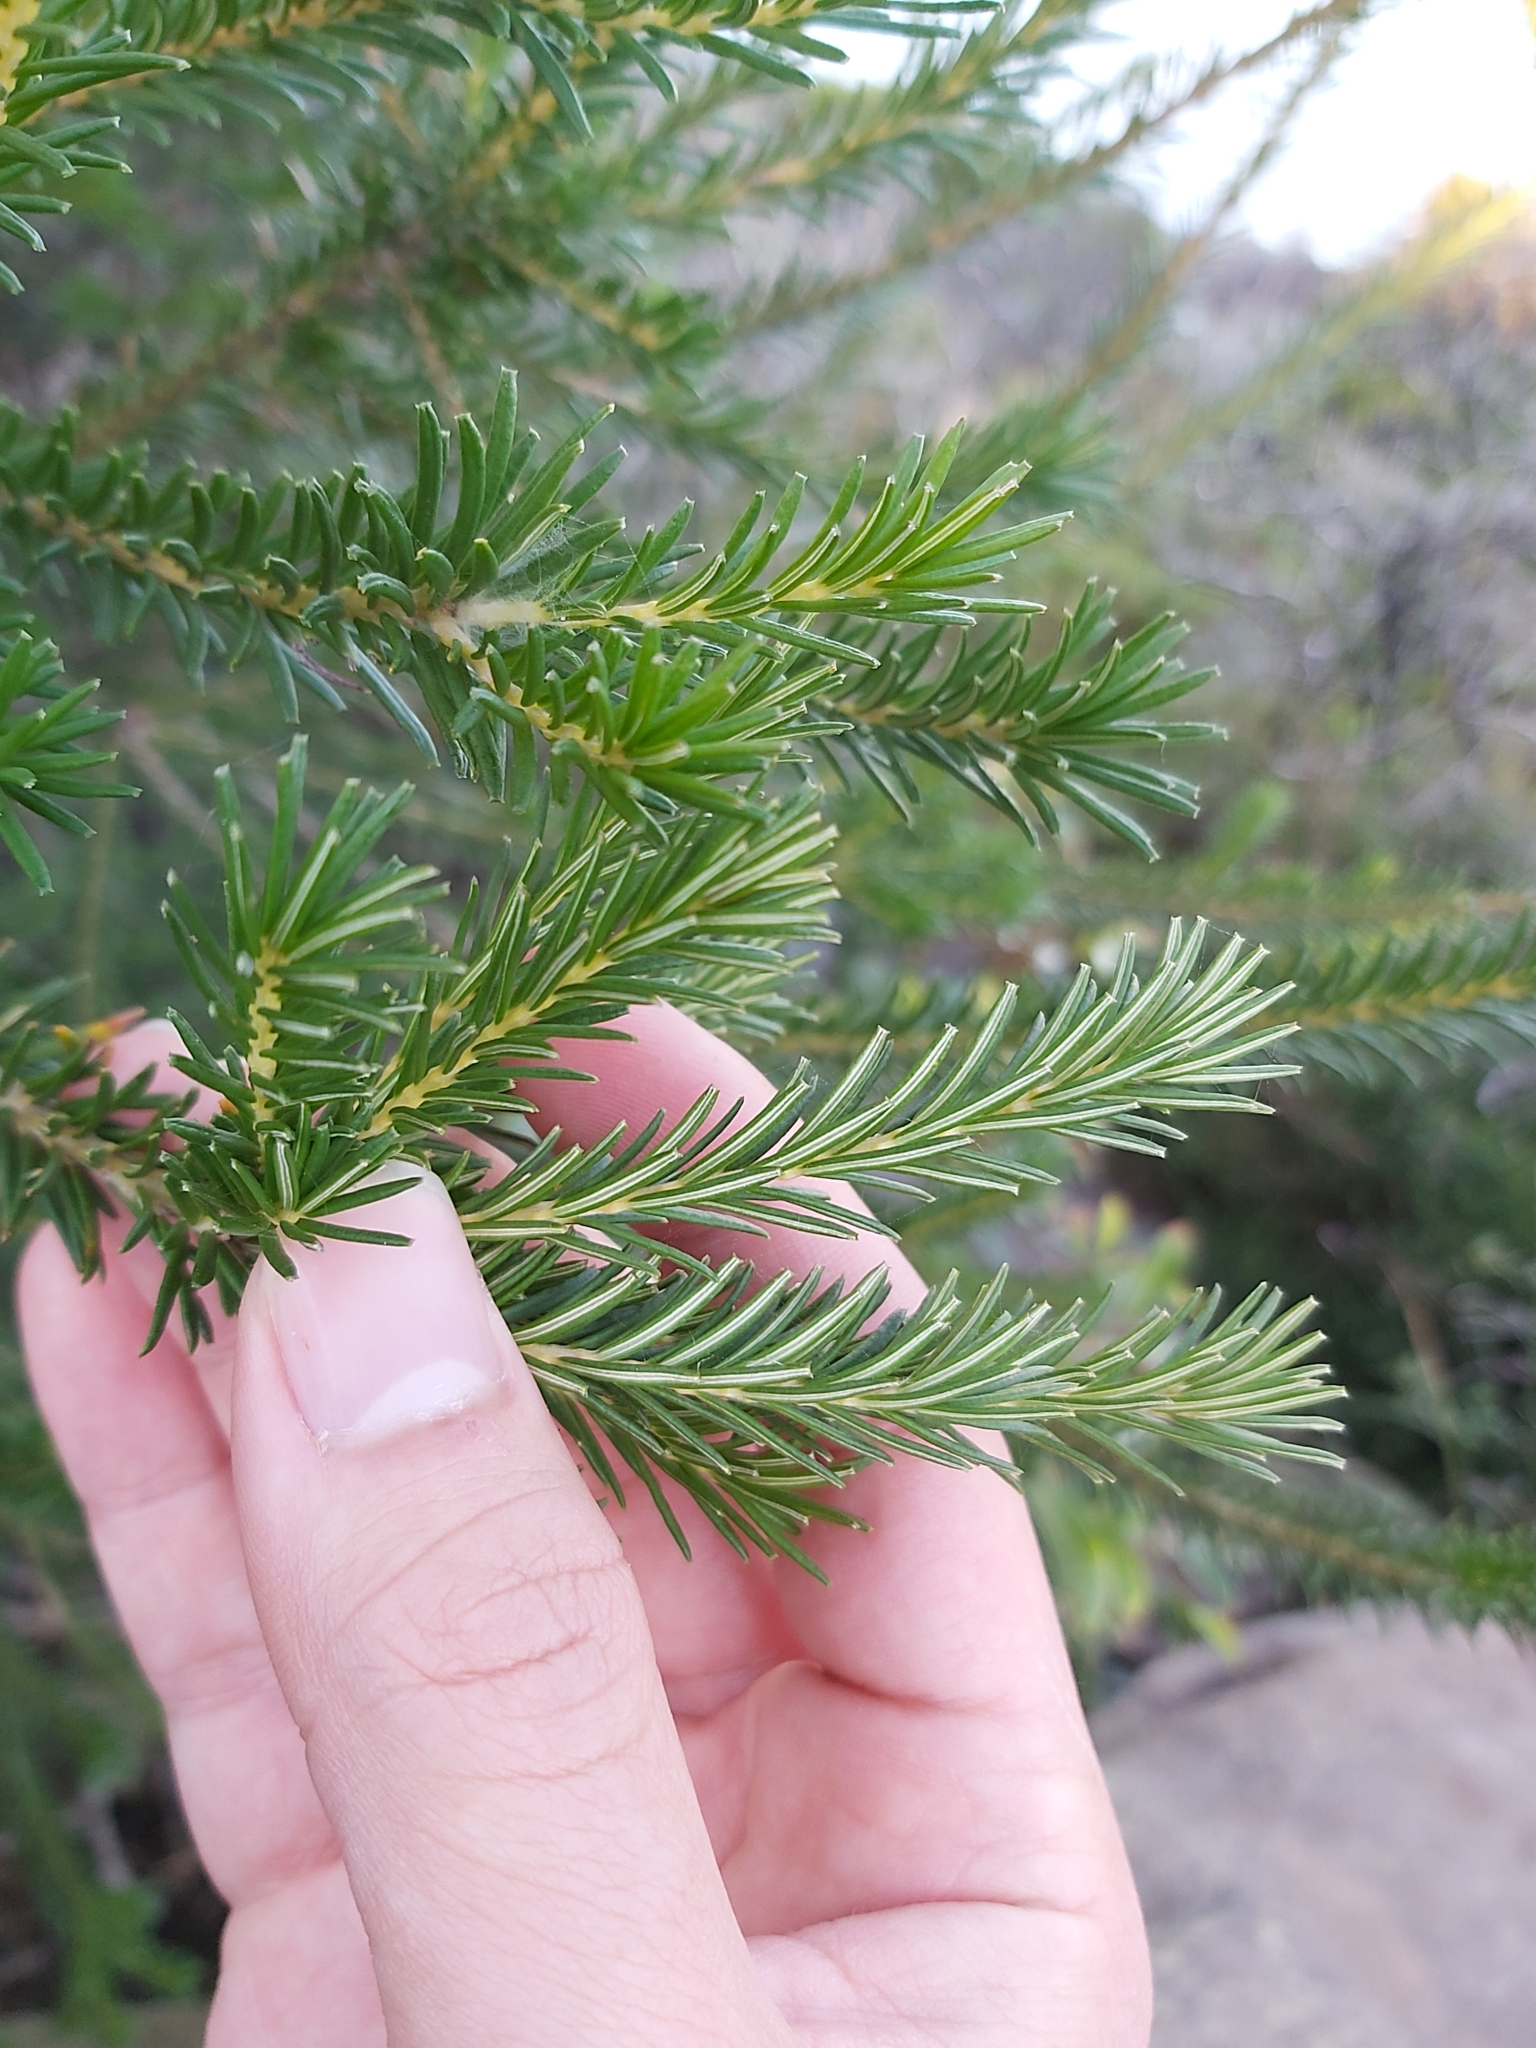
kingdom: Plantae
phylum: Tracheophyta
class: Magnoliopsida
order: Proteales
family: Proteaceae
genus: Banksia
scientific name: Banksia ericifolia
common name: Heath-leaf banksia
